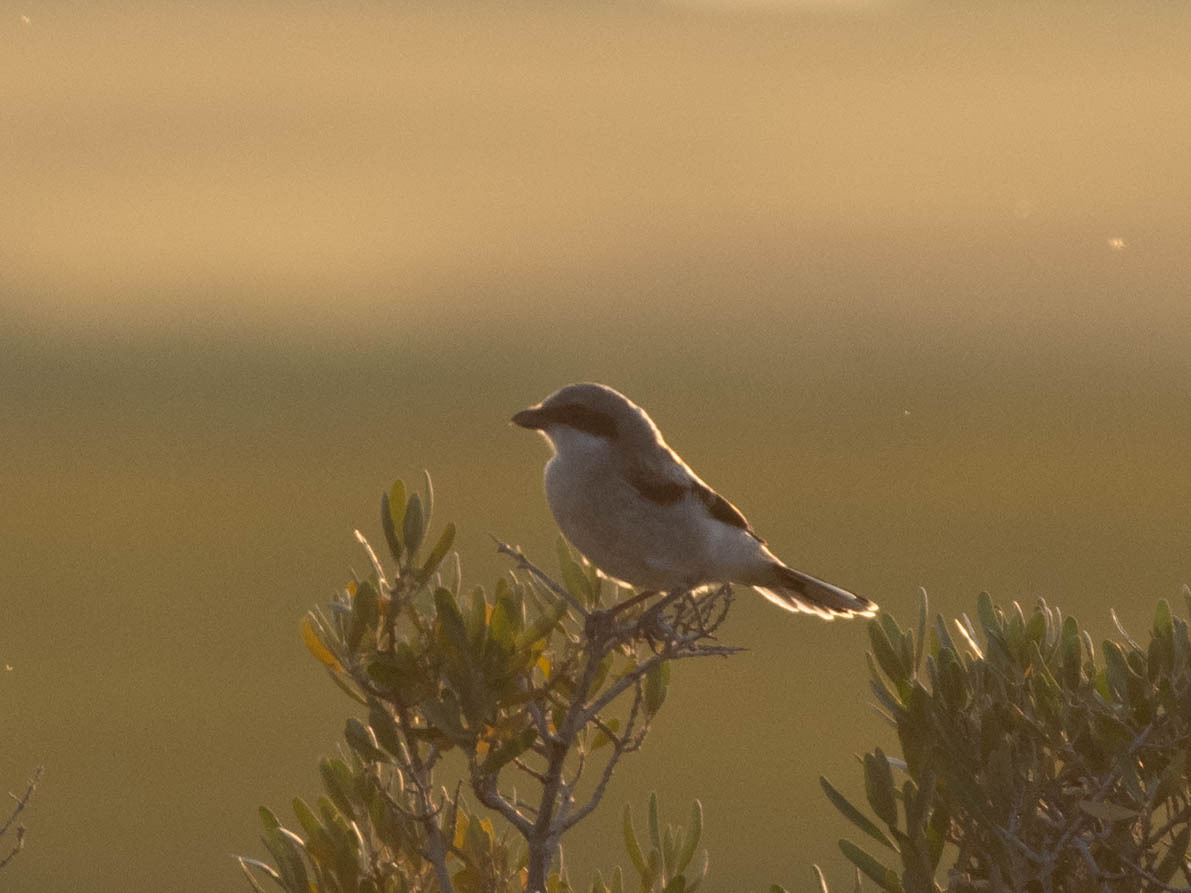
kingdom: Animalia
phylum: Chordata
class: Aves
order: Passeriformes
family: Laniidae
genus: Lanius
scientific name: Lanius ludovicianus
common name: Loggerhead shrike
